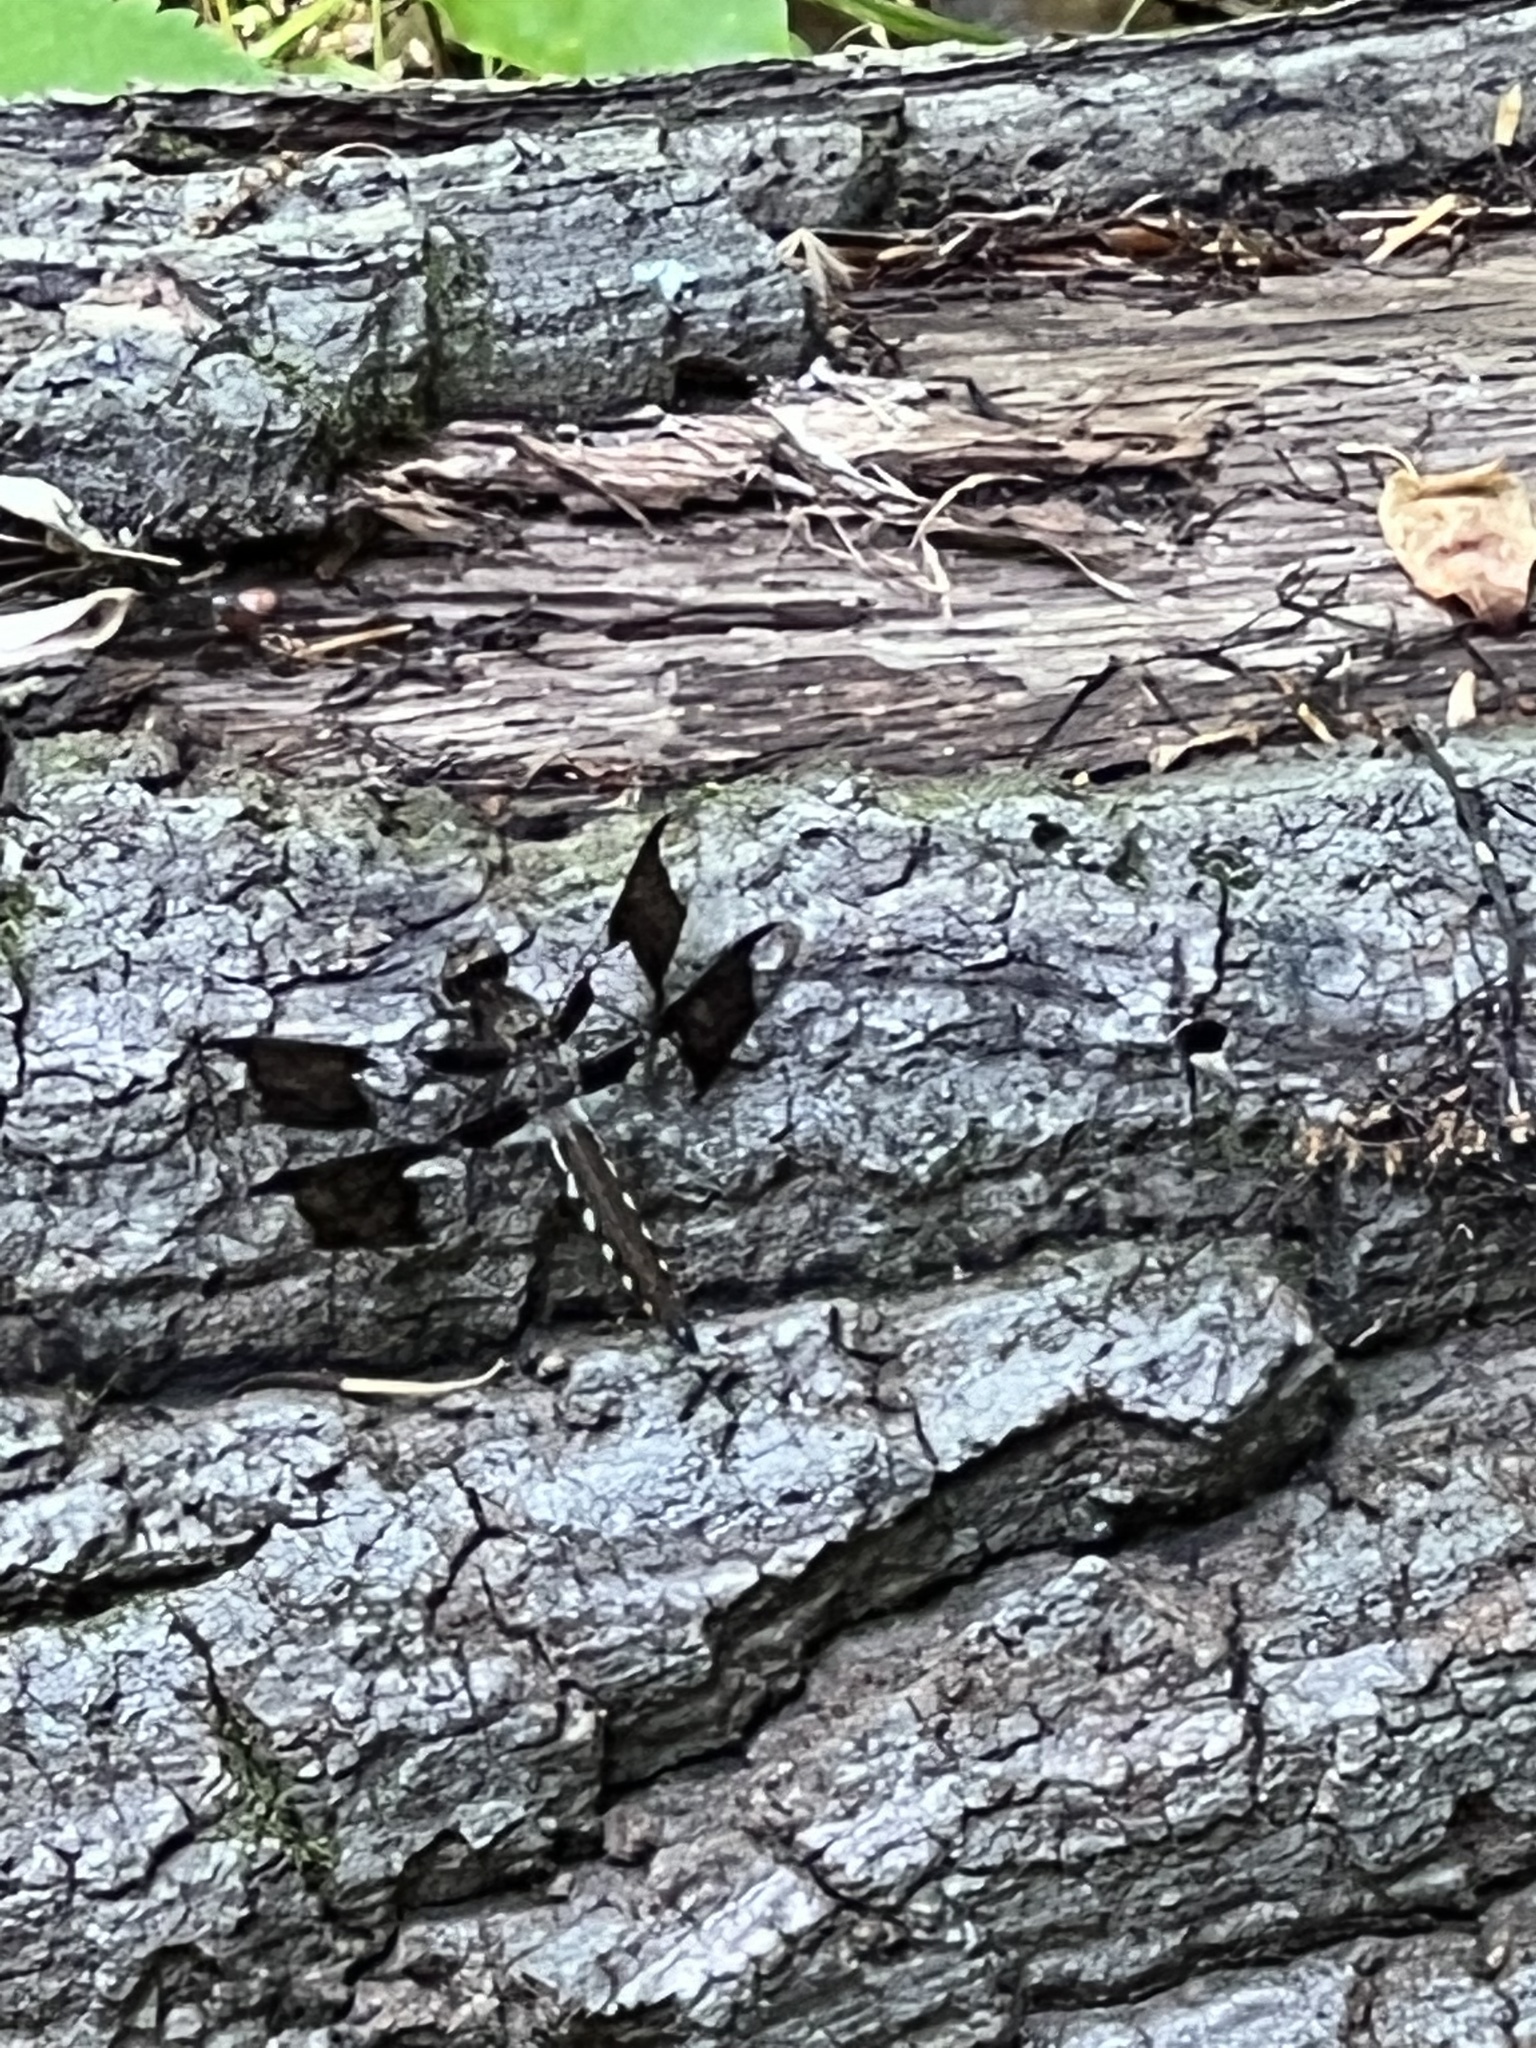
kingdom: Animalia
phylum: Arthropoda
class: Insecta
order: Odonata
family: Libellulidae
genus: Plathemis
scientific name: Plathemis lydia
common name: Common whitetail
